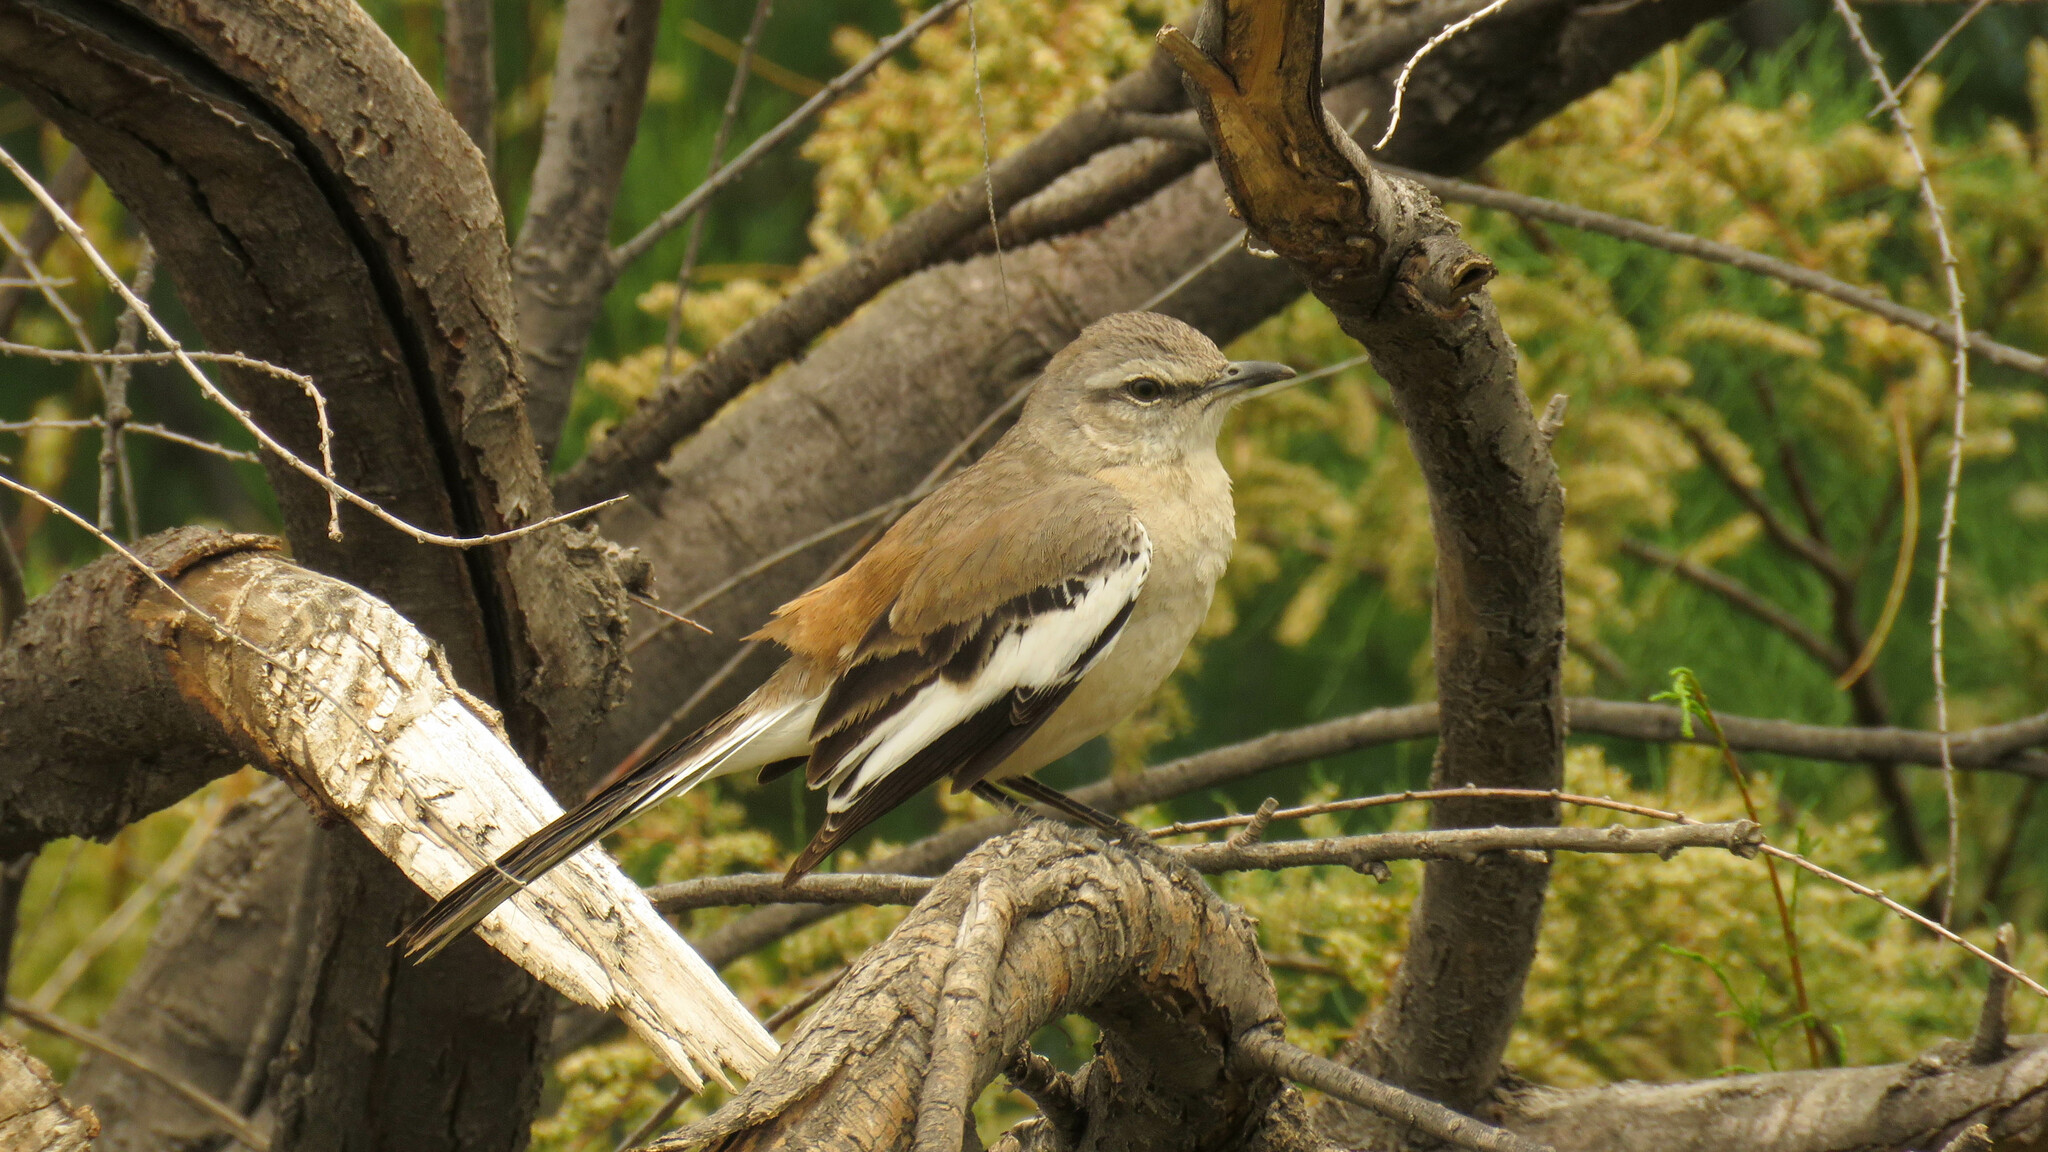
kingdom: Animalia
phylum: Chordata
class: Aves
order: Passeriformes
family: Mimidae
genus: Mimus
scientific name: Mimus triurus
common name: White-banded mockingbird
